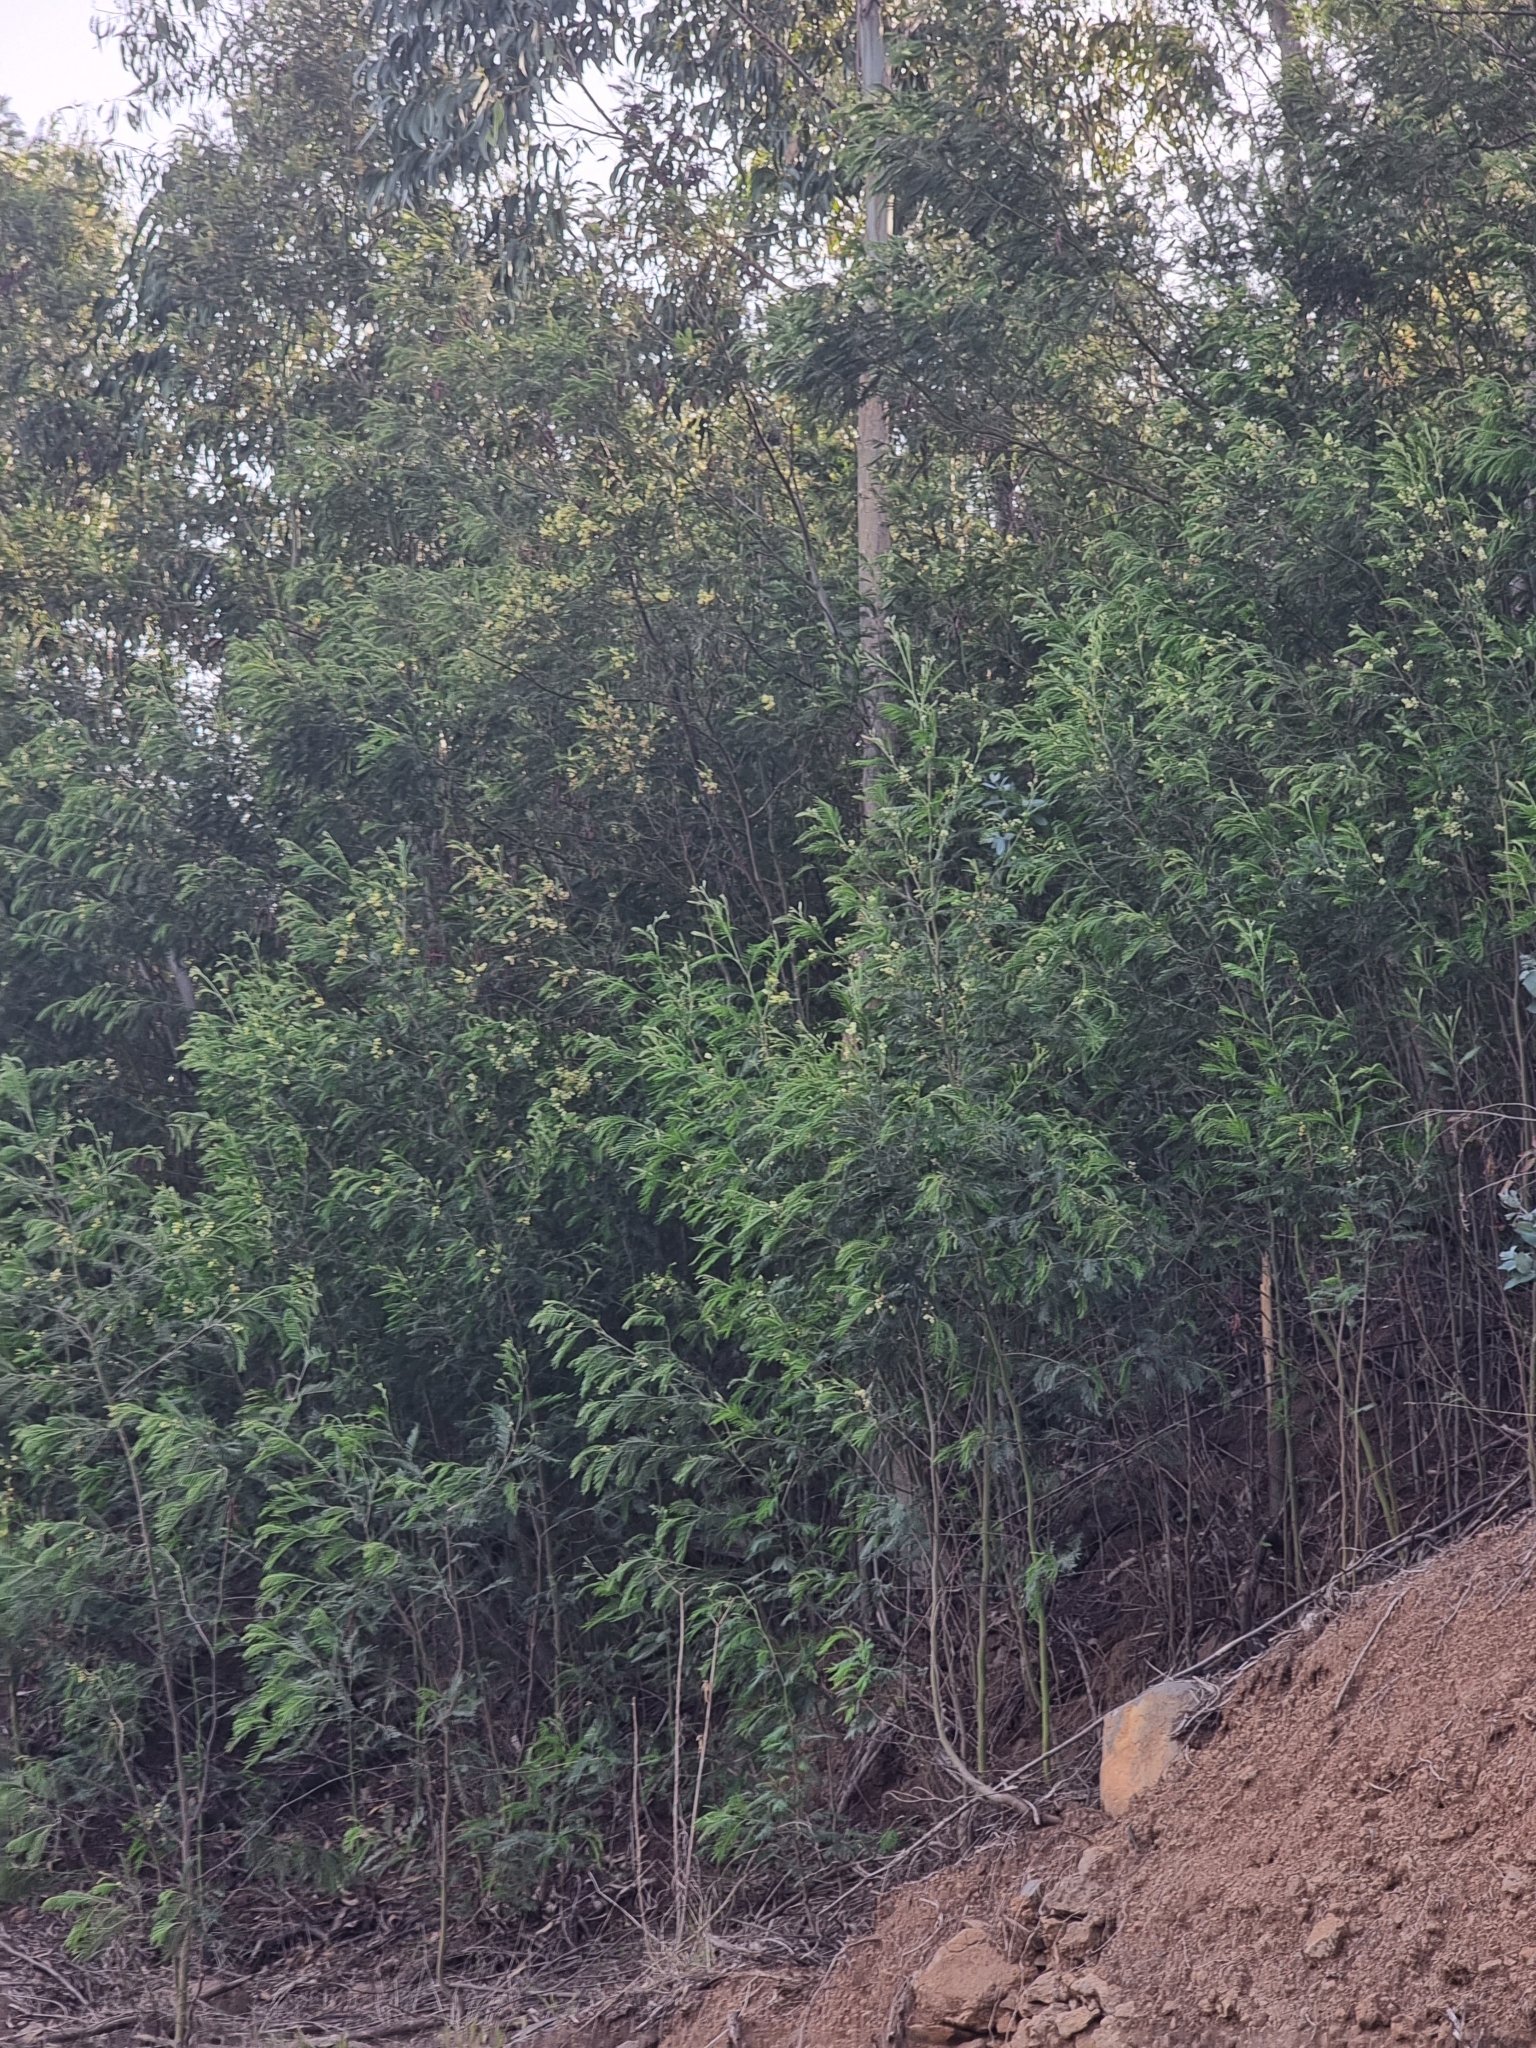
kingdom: Plantae
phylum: Tracheophyta
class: Magnoliopsida
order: Fabales
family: Fabaceae
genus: Acacia
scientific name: Acacia mearnsii
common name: Black wattle
